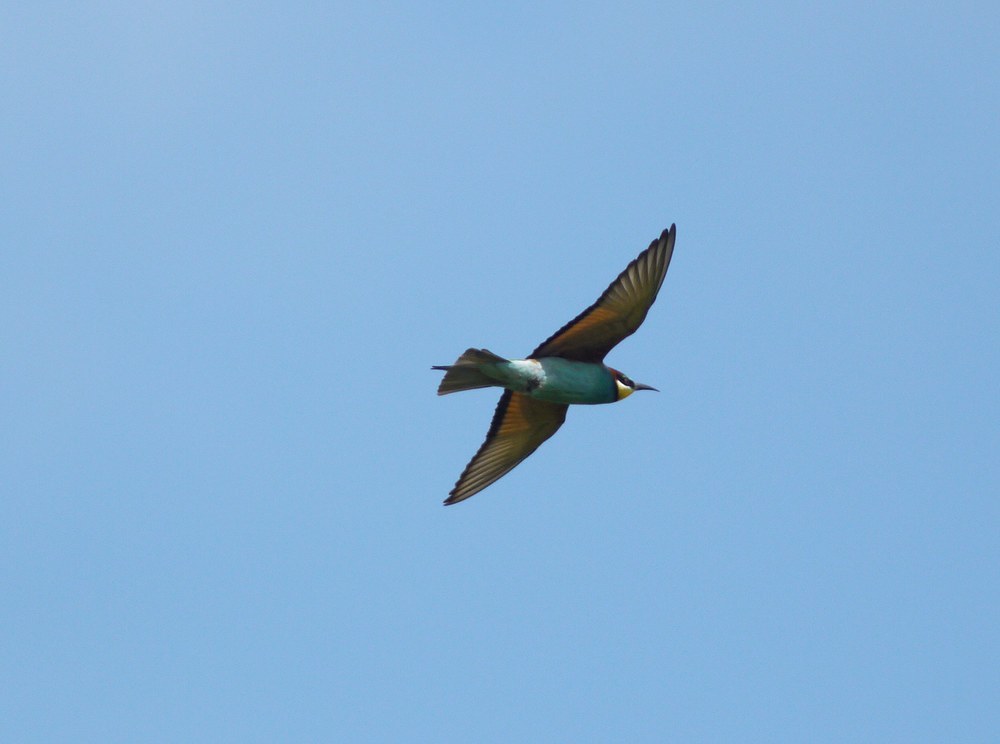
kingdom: Animalia
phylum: Chordata
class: Aves
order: Coraciiformes
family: Meropidae
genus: Merops
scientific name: Merops apiaster
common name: European bee-eater
